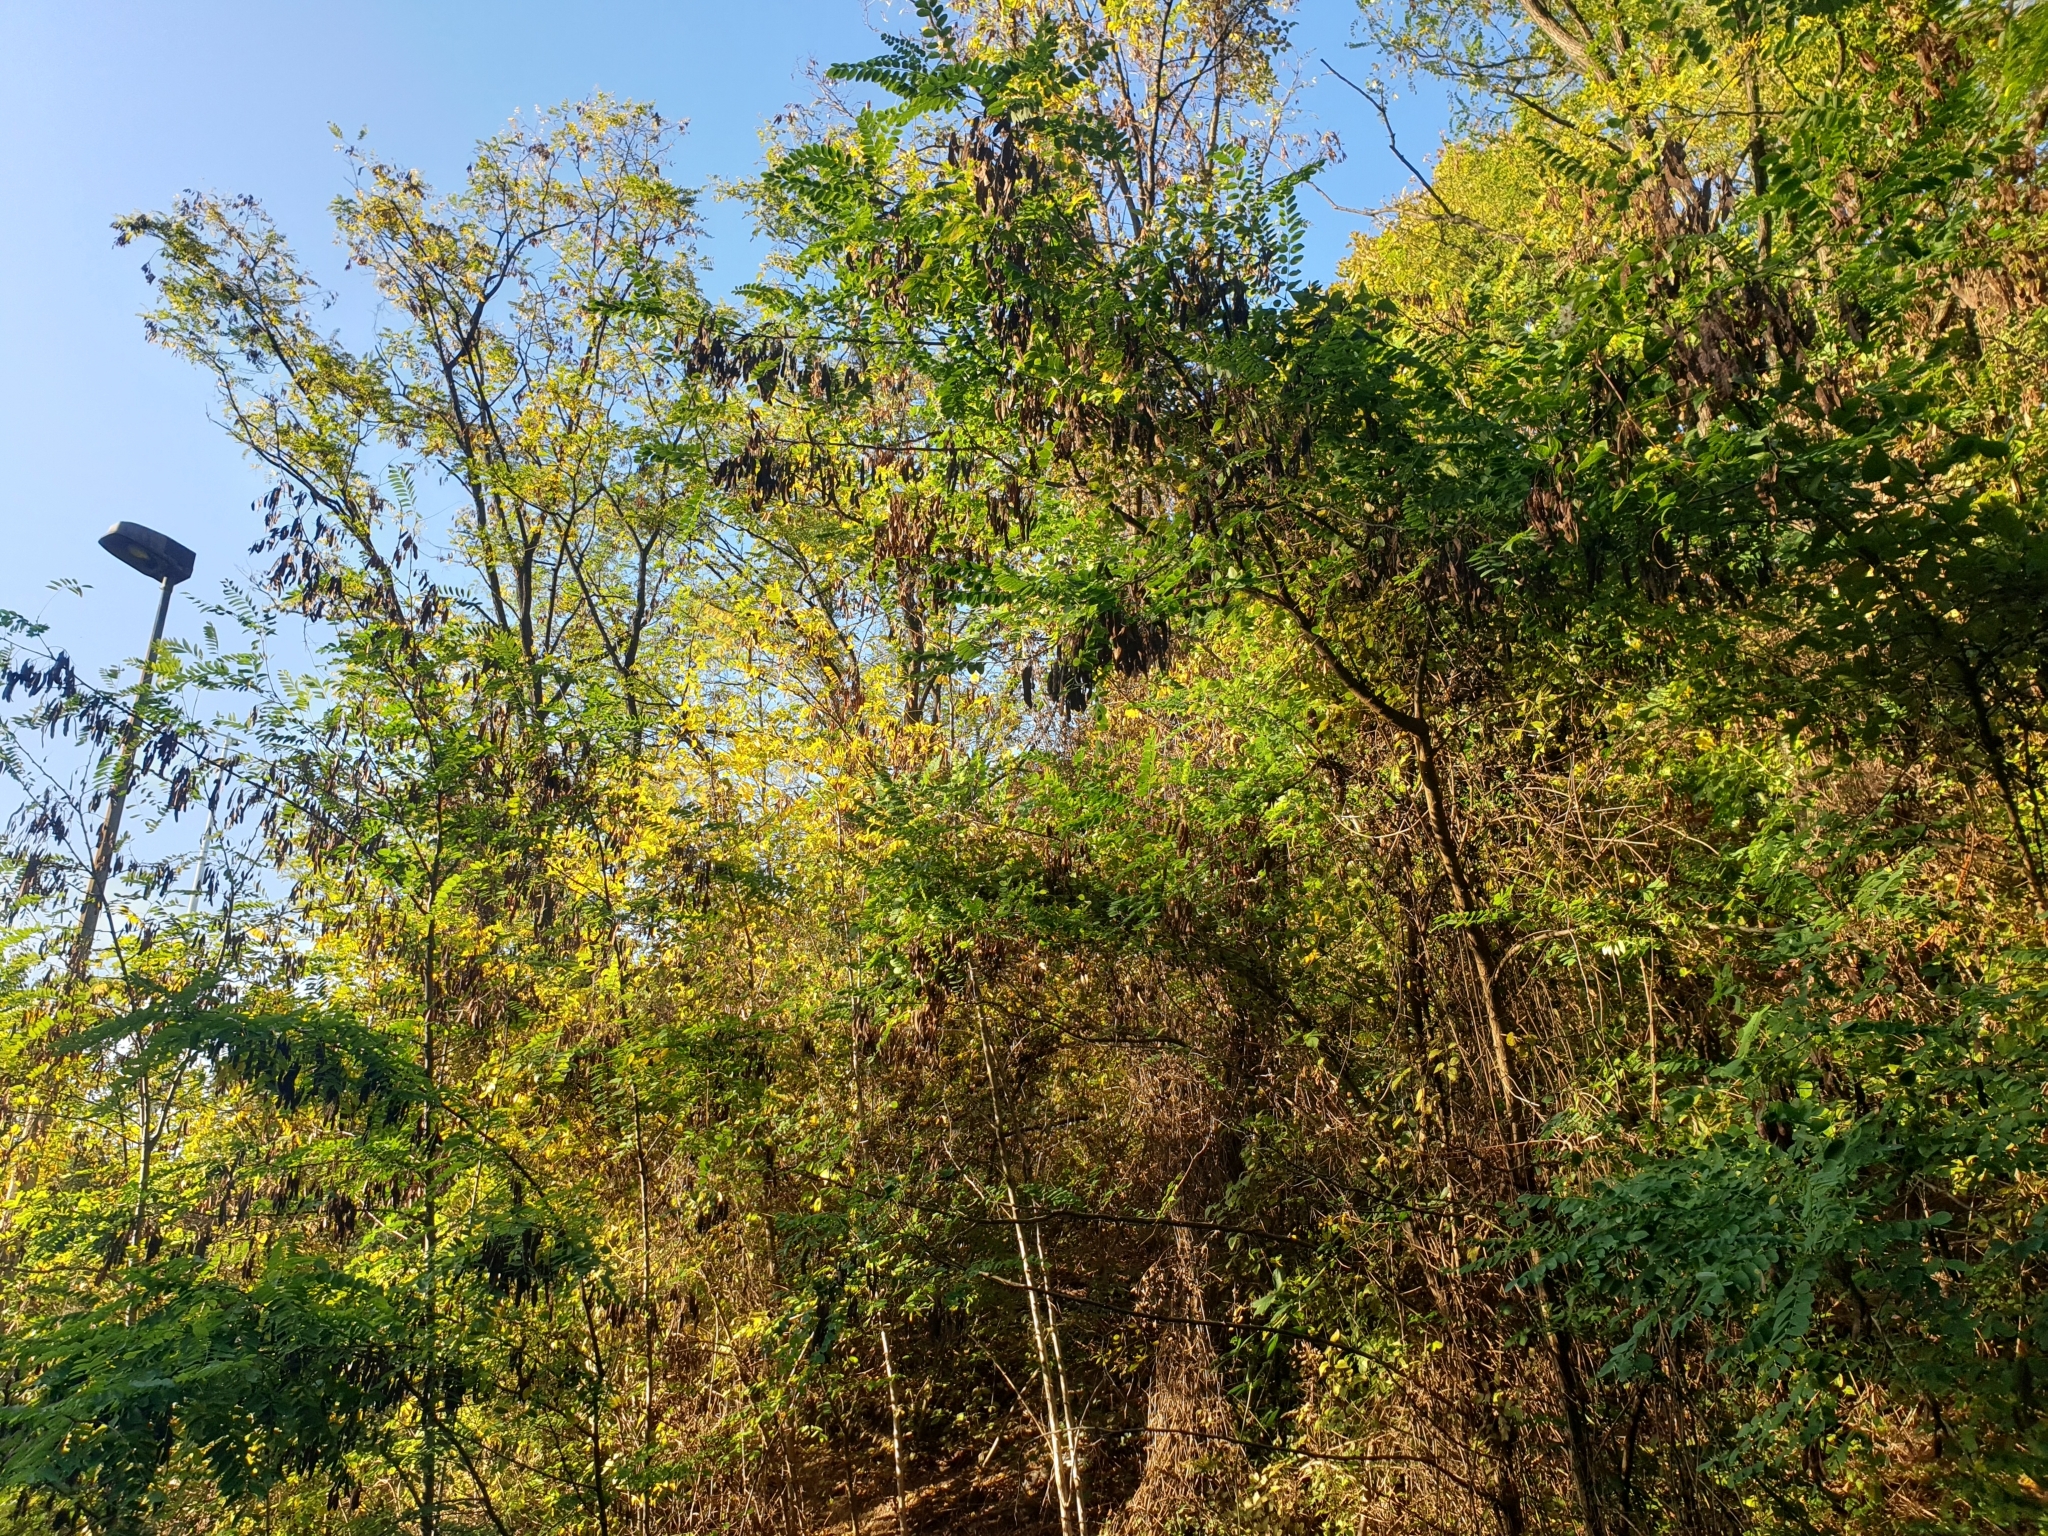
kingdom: Plantae
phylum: Tracheophyta
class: Magnoliopsida
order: Fabales
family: Fabaceae
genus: Robinia
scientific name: Robinia pseudoacacia
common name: Black locust
